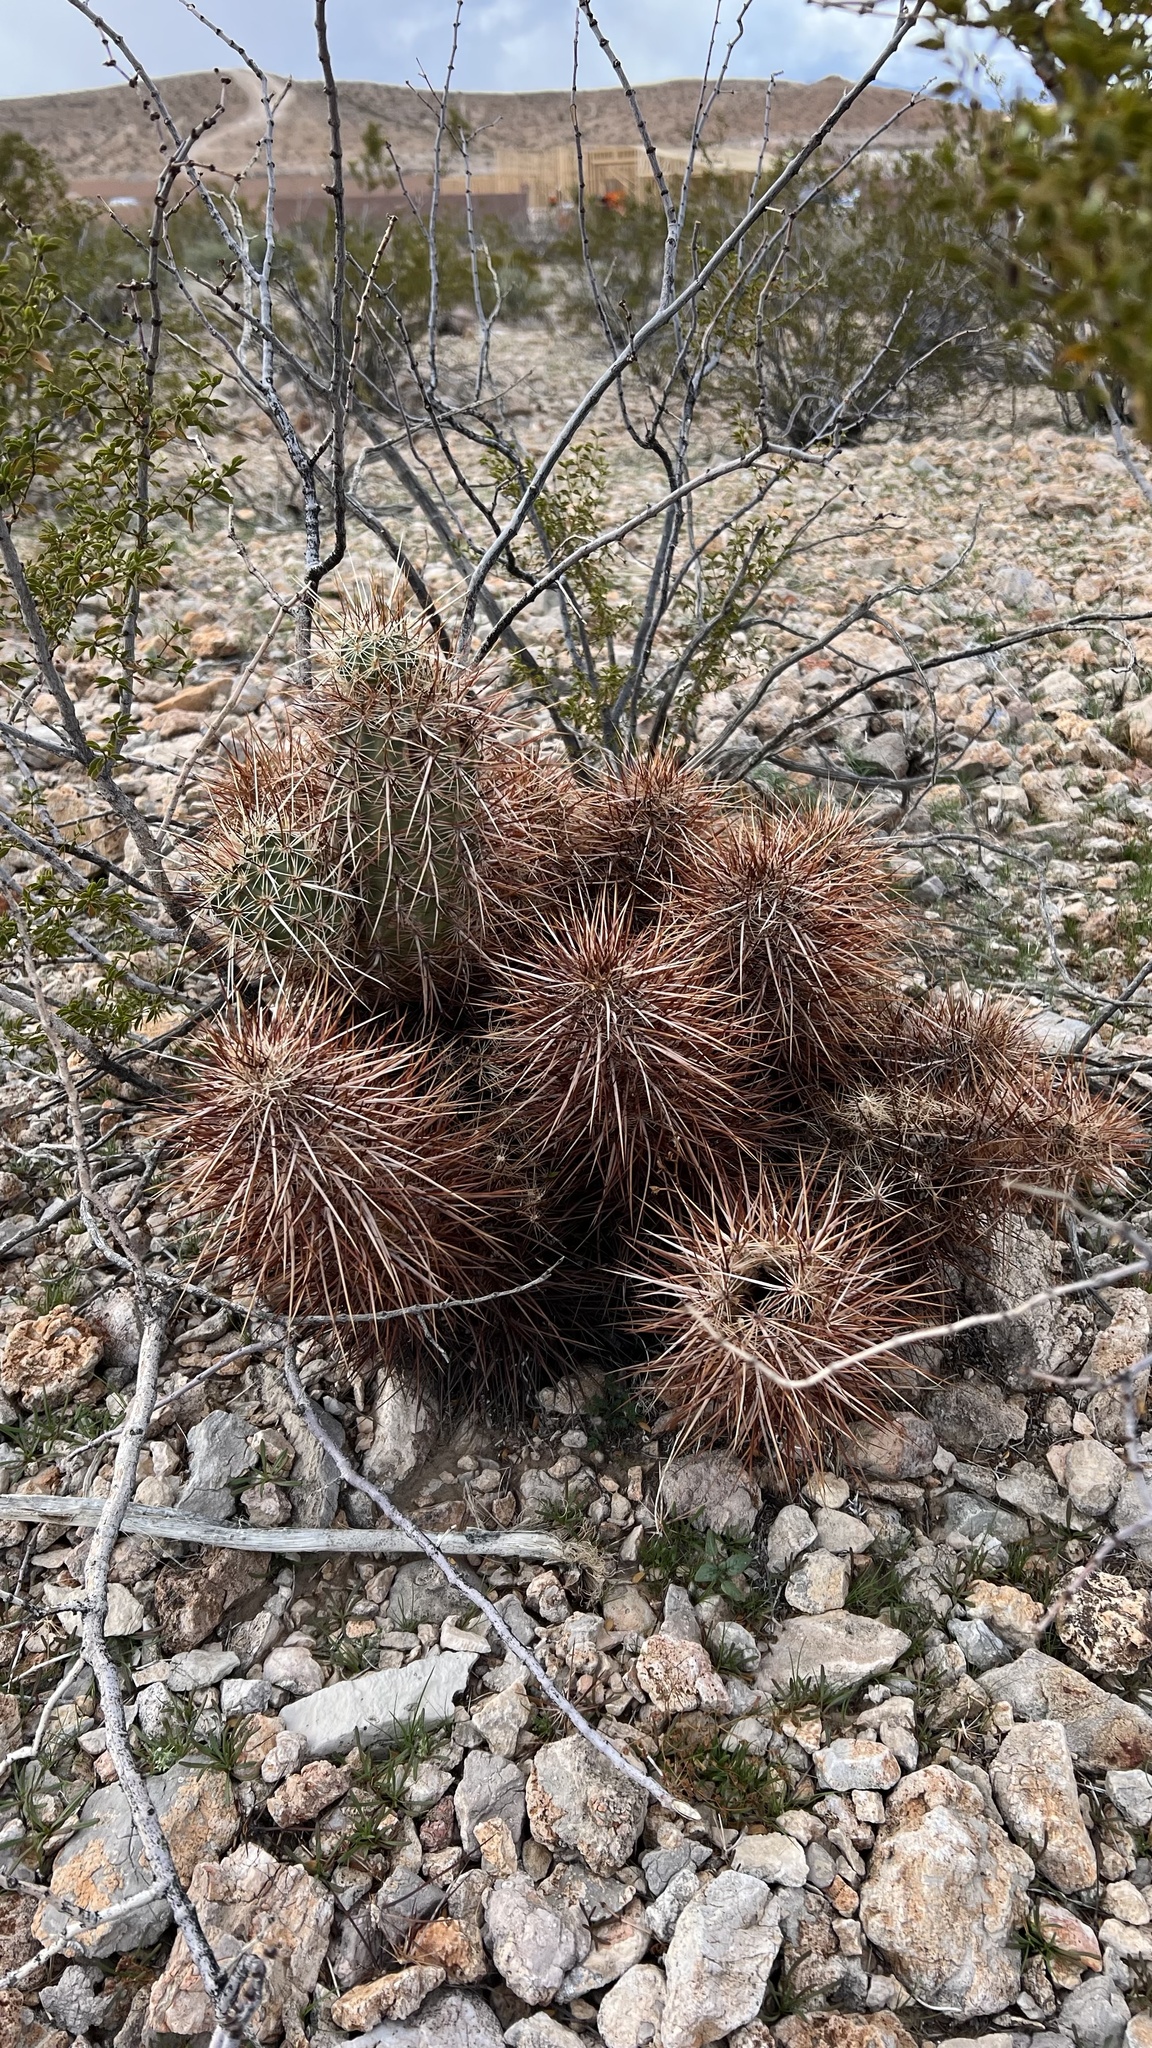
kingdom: Plantae
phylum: Tracheophyta
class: Magnoliopsida
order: Caryophyllales
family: Cactaceae
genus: Echinocereus
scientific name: Echinocereus engelmannii
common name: Engelmann's hedgehog cactus
